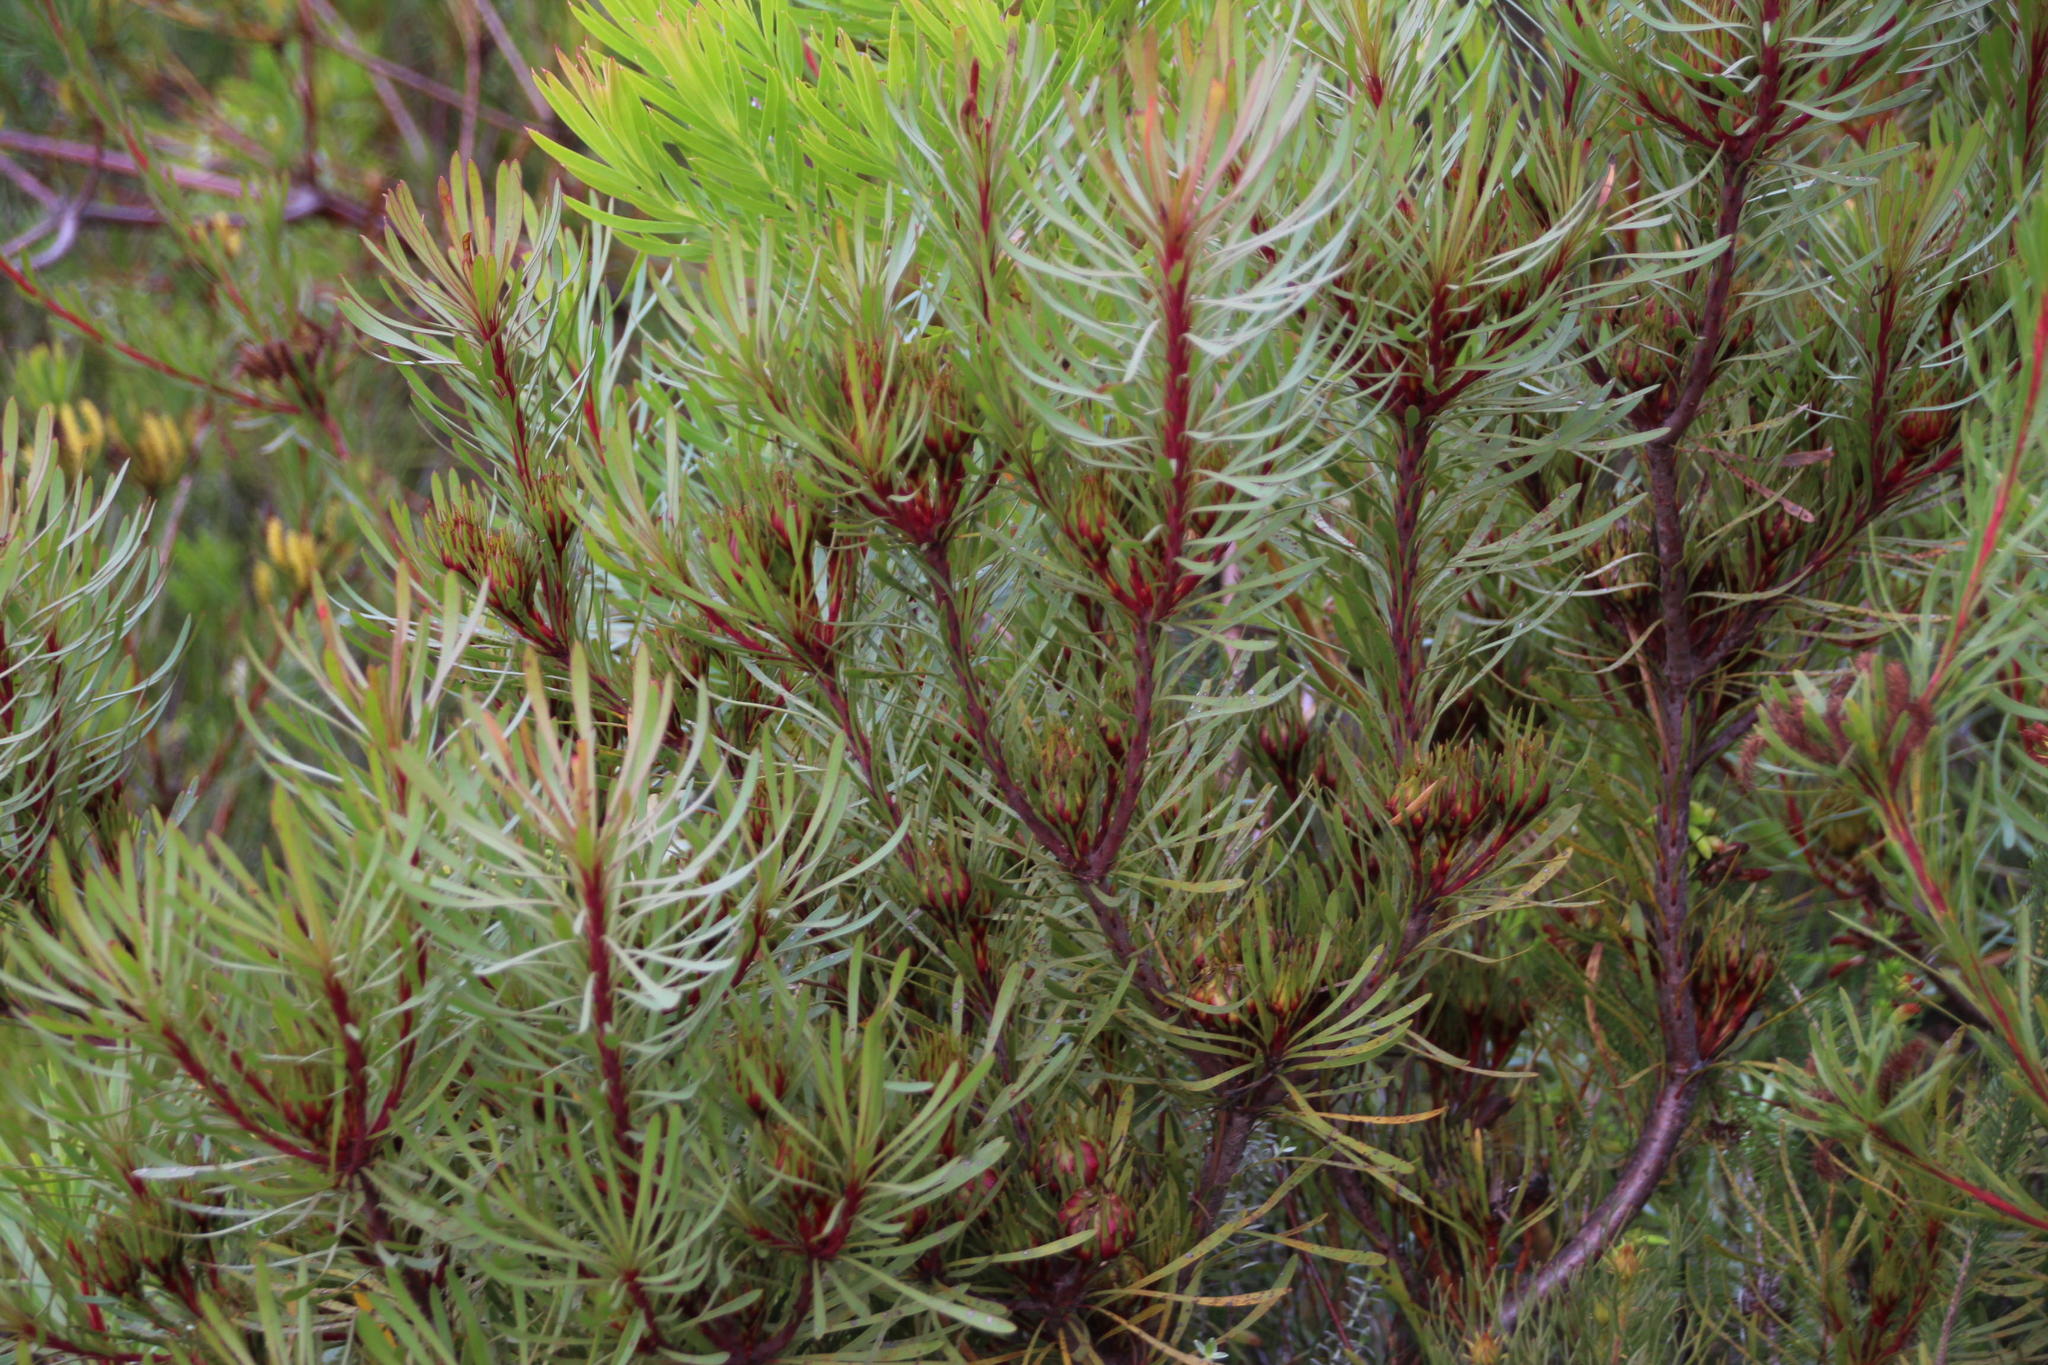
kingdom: Plantae
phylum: Tracheophyta
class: Magnoliopsida
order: Proteales
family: Proteaceae
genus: Aulax
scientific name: Aulax
